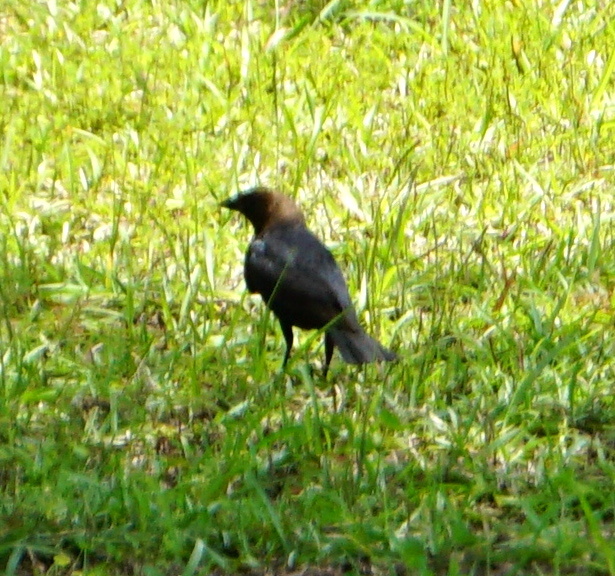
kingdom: Animalia
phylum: Chordata
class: Aves
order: Passeriformes
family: Icteridae
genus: Molothrus
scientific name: Molothrus ater
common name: Brown-headed cowbird
